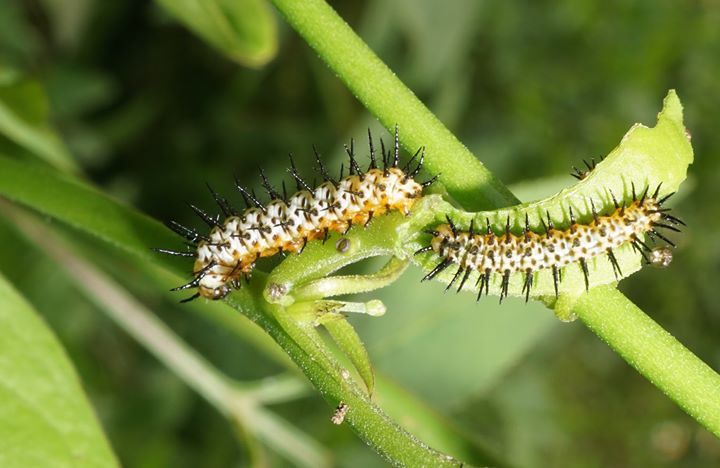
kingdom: Animalia
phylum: Arthropoda
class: Insecta
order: Lepidoptera
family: Nymphalidae
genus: Heliconius
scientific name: Heliconius charithonia
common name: Zebra long wing
